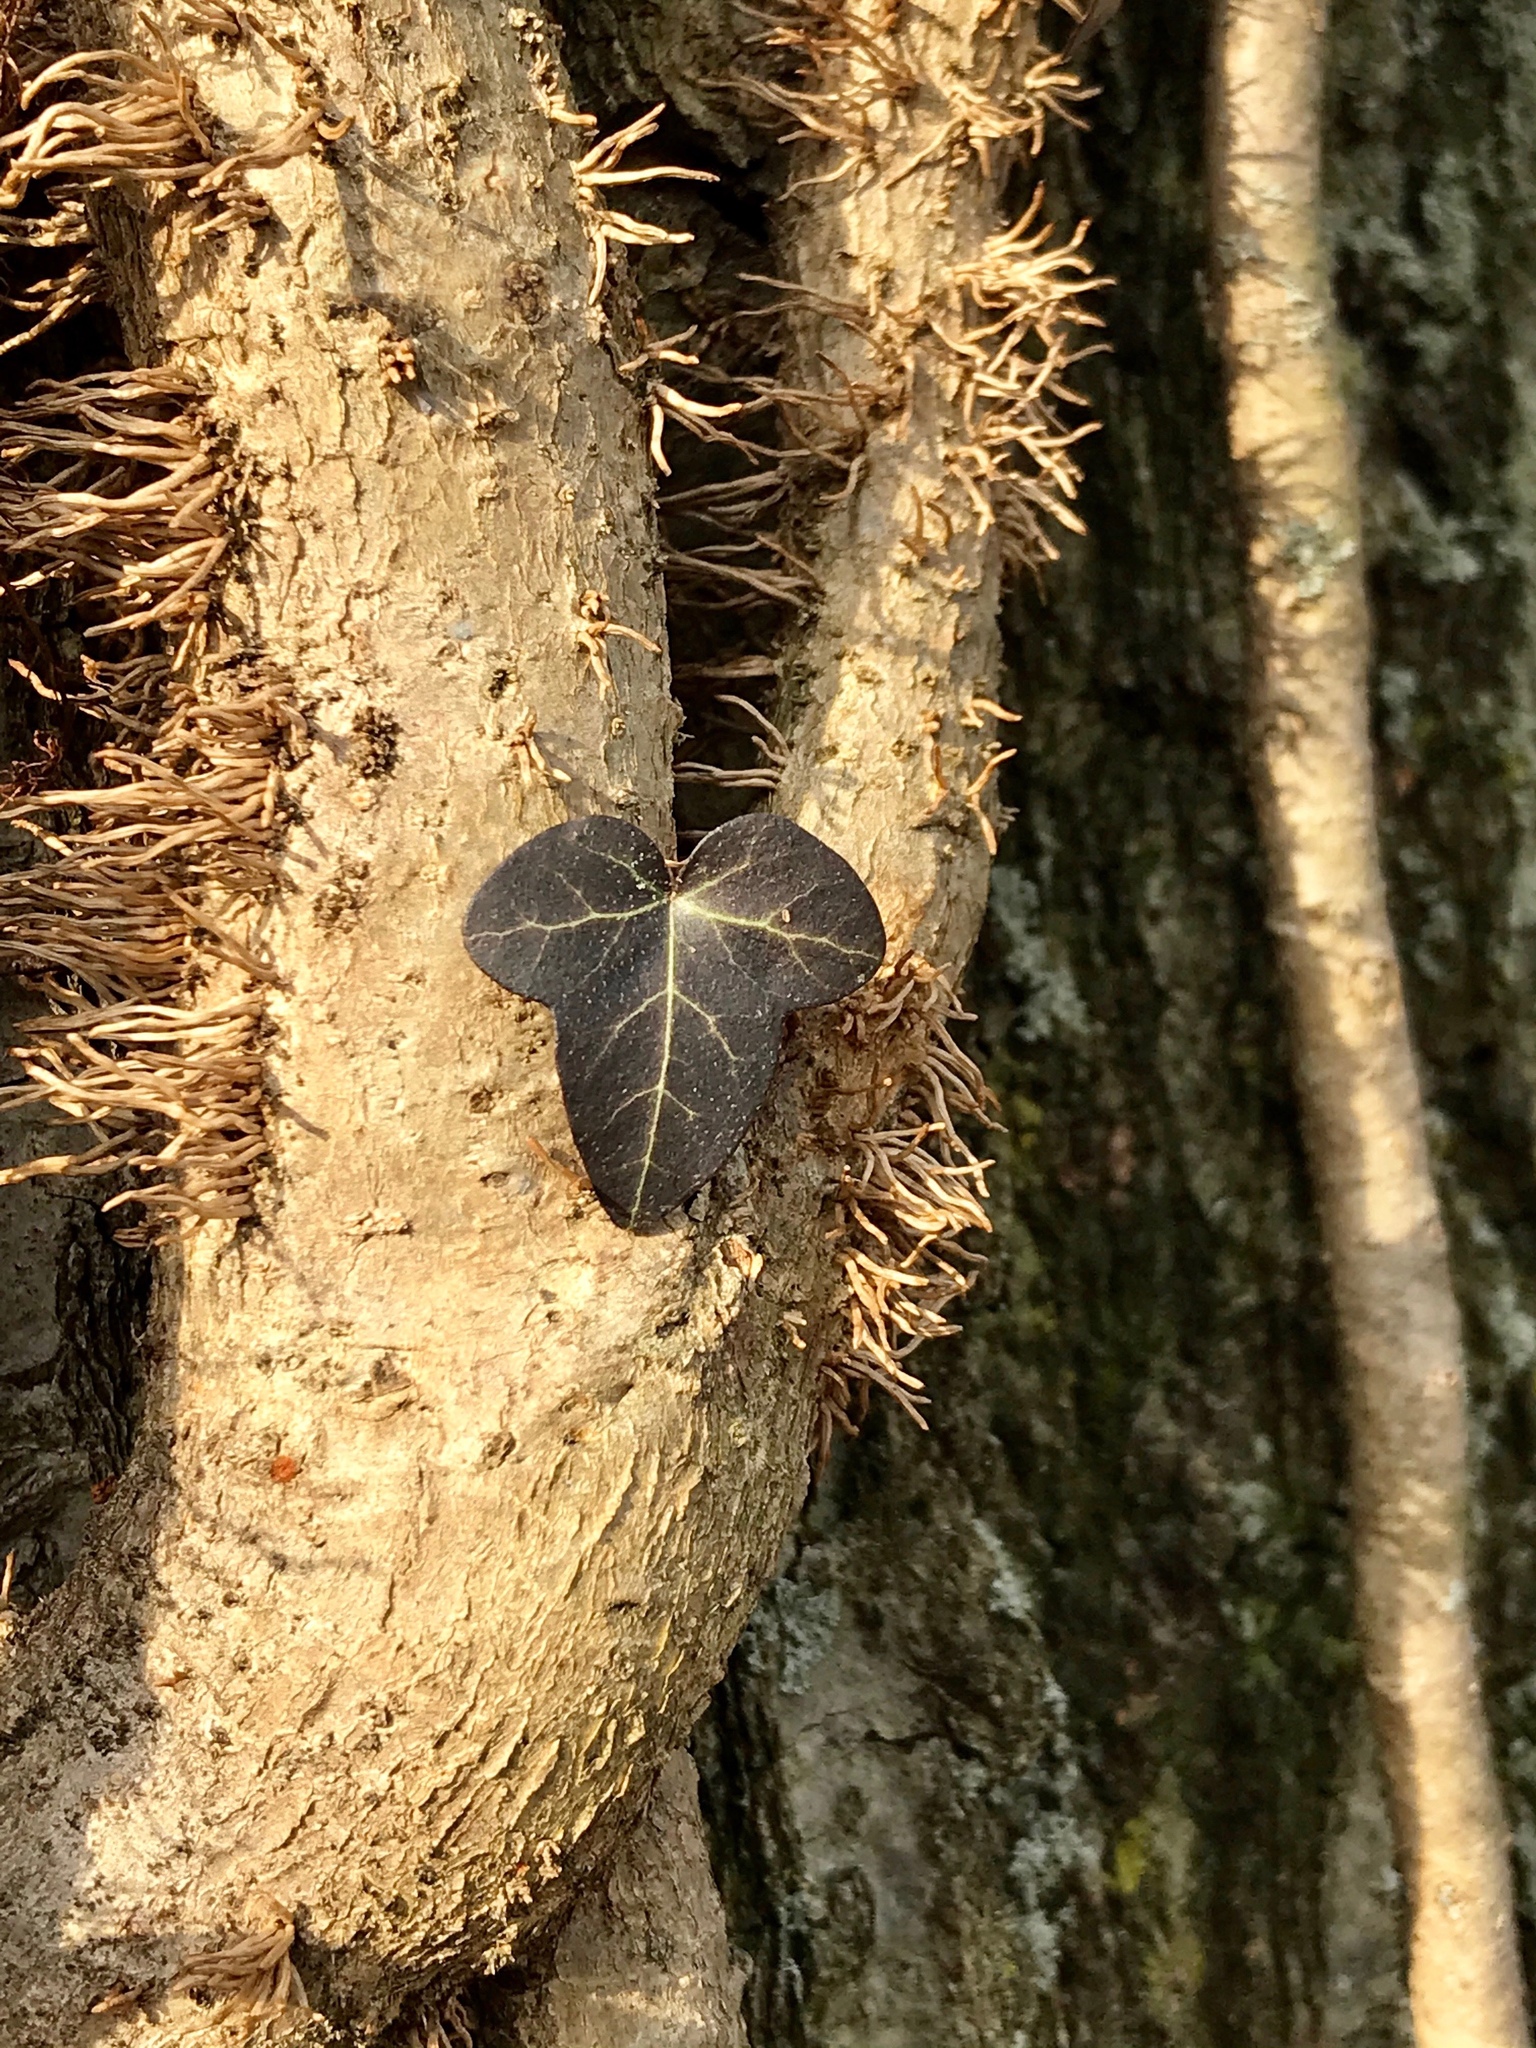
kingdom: Plantae
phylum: Tracheophyta
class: Magnoliopsida
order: Apiales
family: Araliaceae
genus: Hedera
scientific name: Hedera
